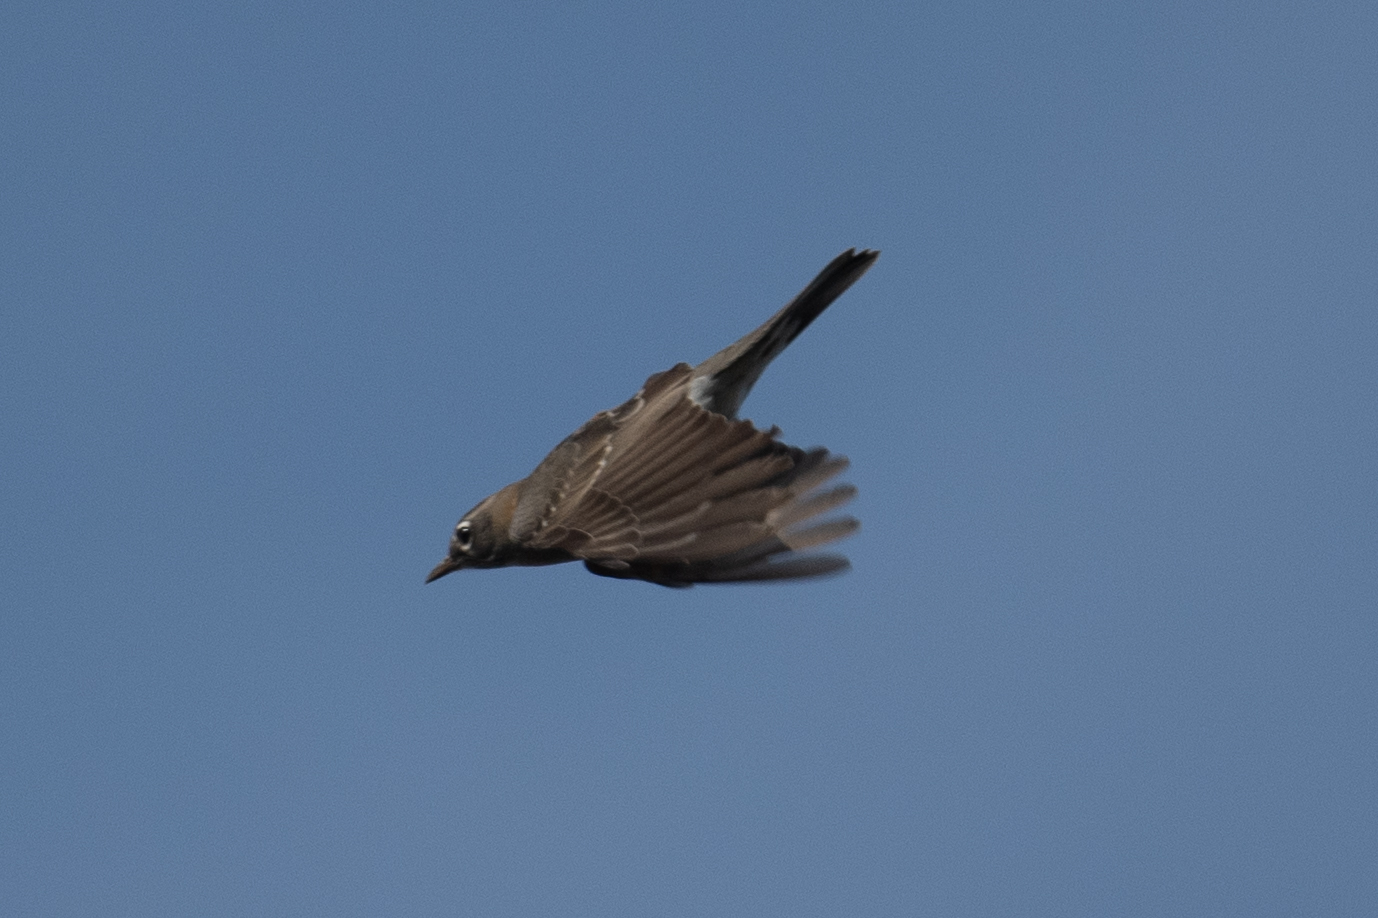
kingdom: Animalia
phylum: Chordata
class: Aves
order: Passeriformes
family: Turdidae
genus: Turdus
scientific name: Turdus migratorius
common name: American robin
